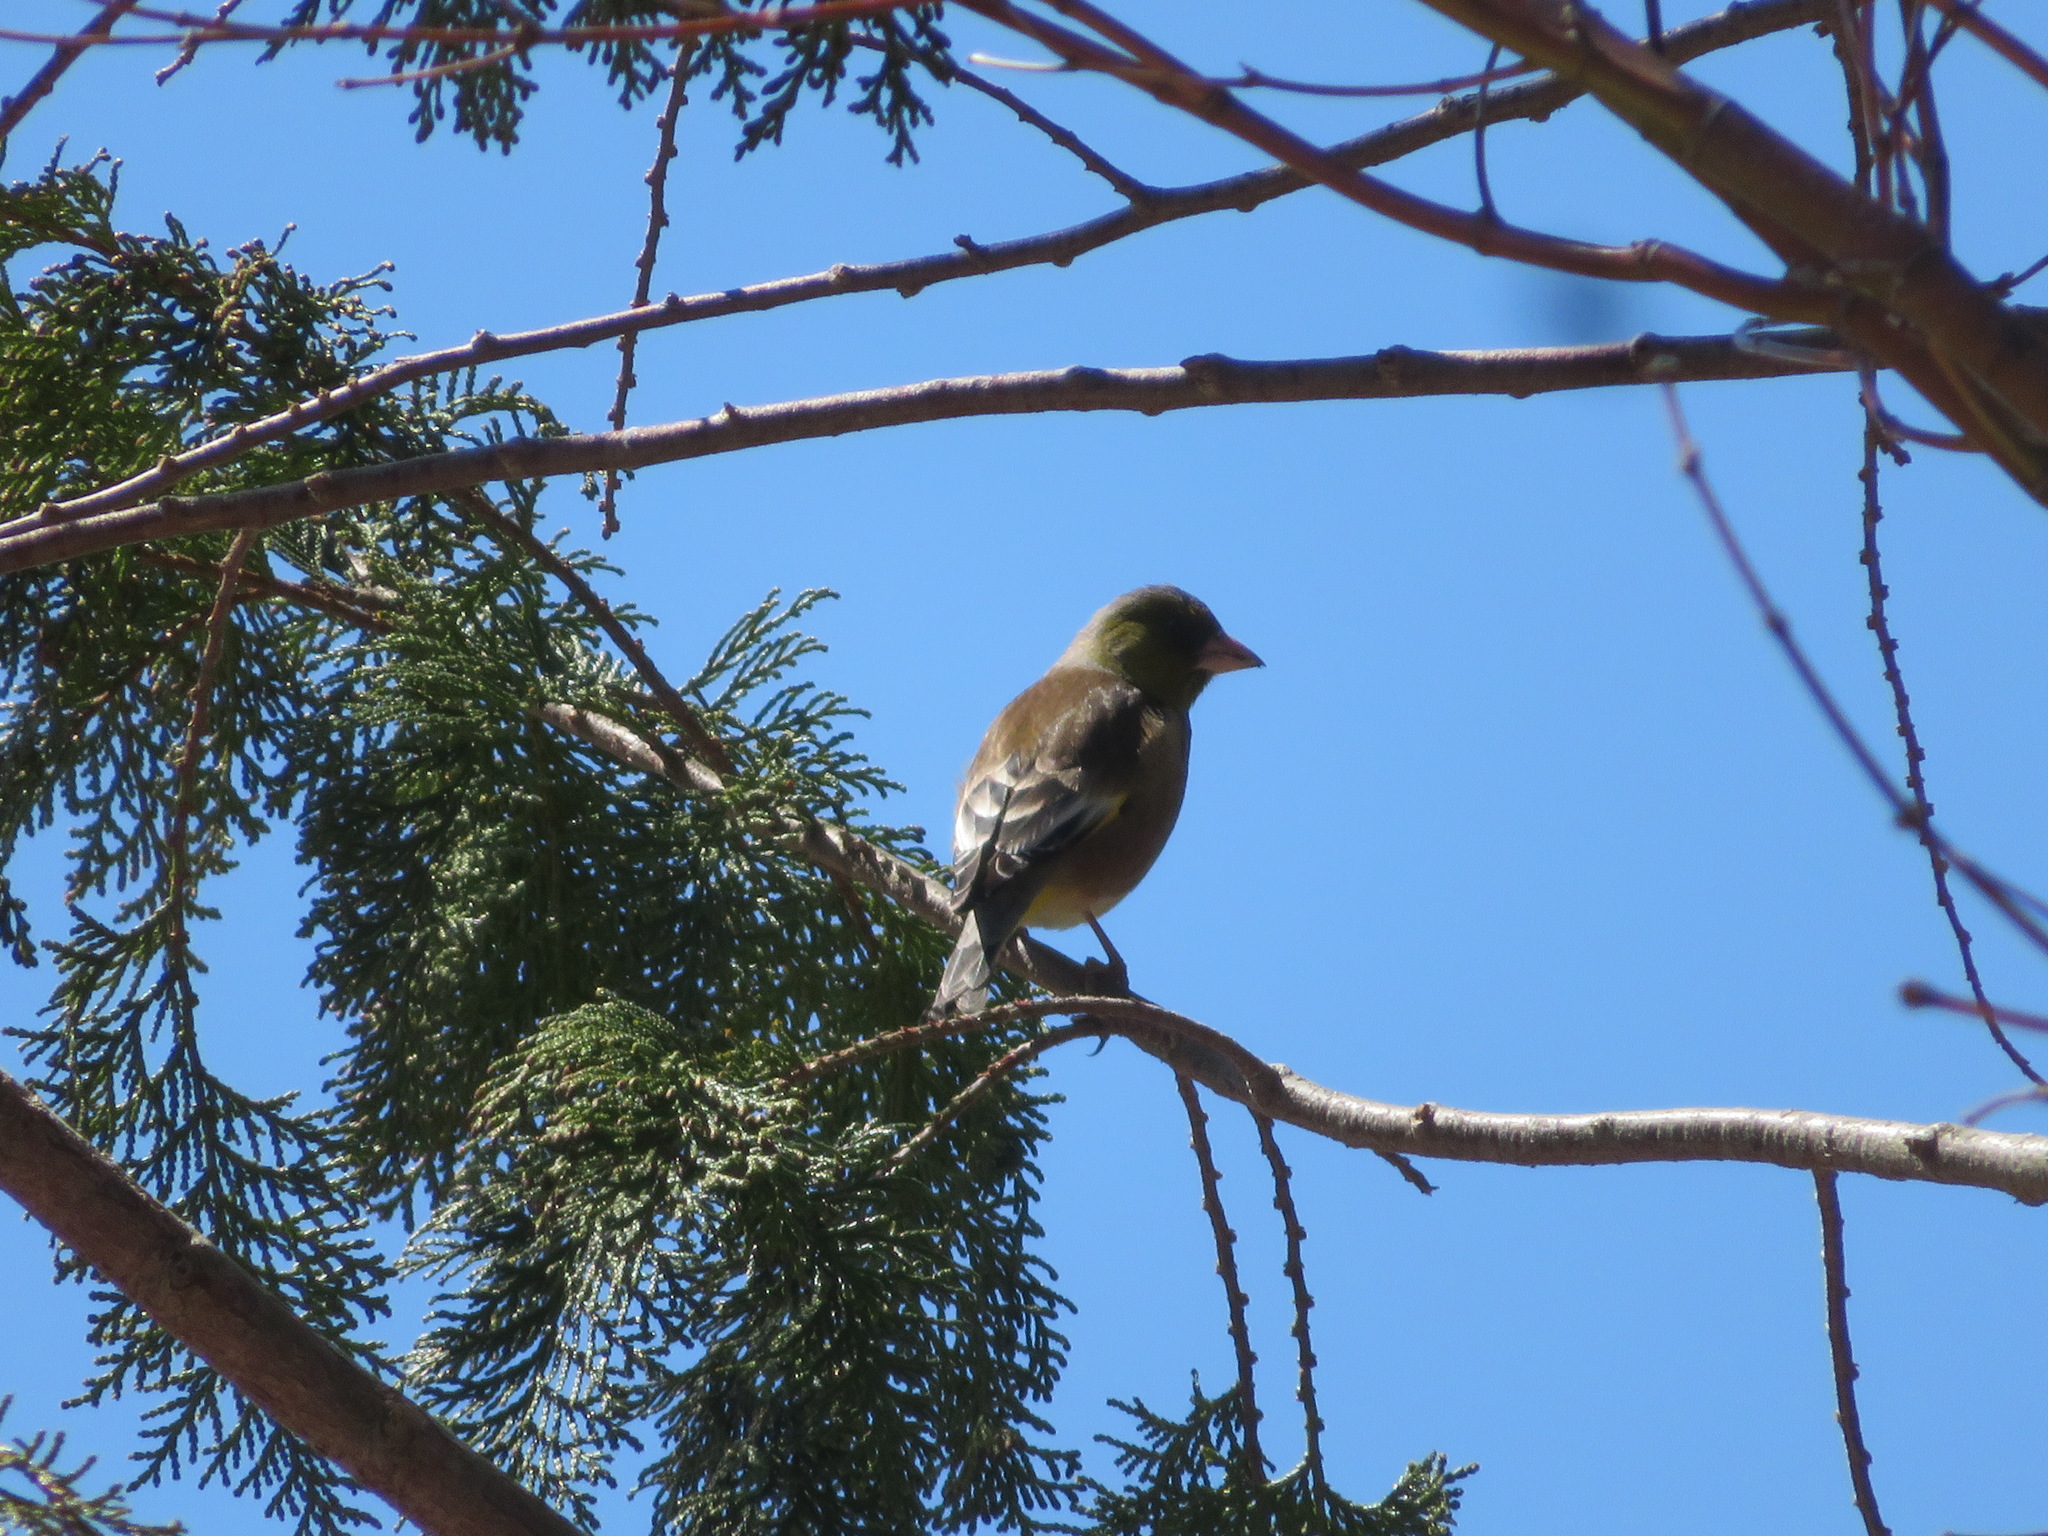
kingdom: Plantae
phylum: Tracheophyta
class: Liliopsida
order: Poales
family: Poaceae
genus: Chloris
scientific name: Chloris sinica
